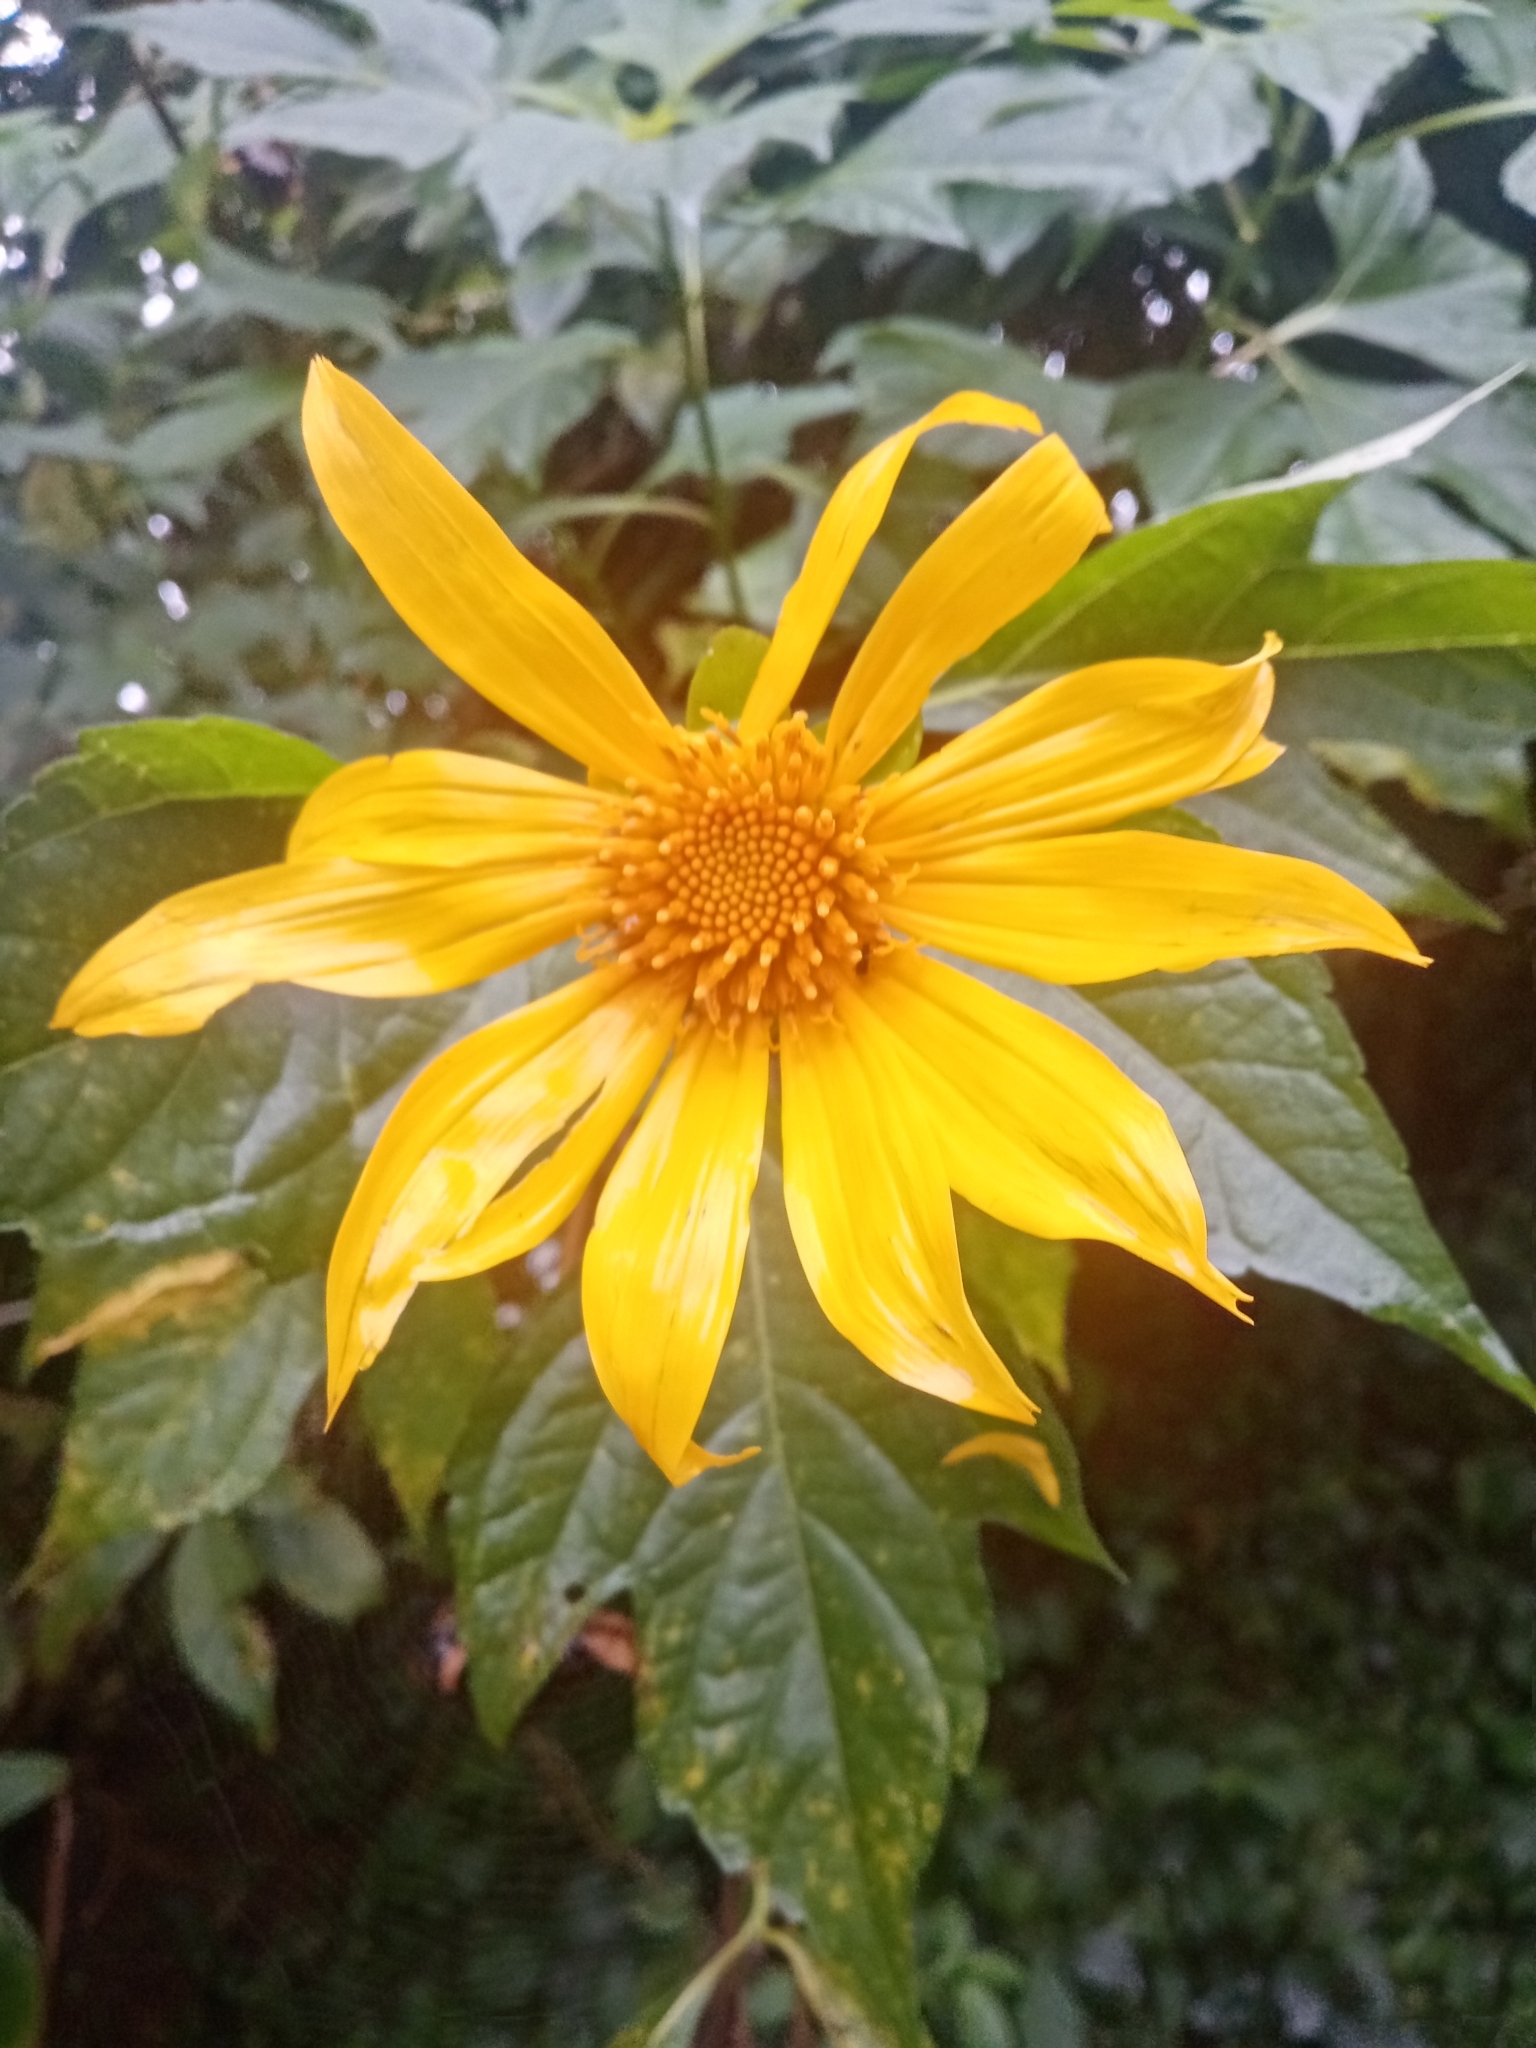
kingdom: Plantae
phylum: Tracheophyta
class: Magnoliopsida
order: Asterales
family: Asteraceae
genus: Tithonia
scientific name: Tithonia diversifolia
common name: Tree marigold
